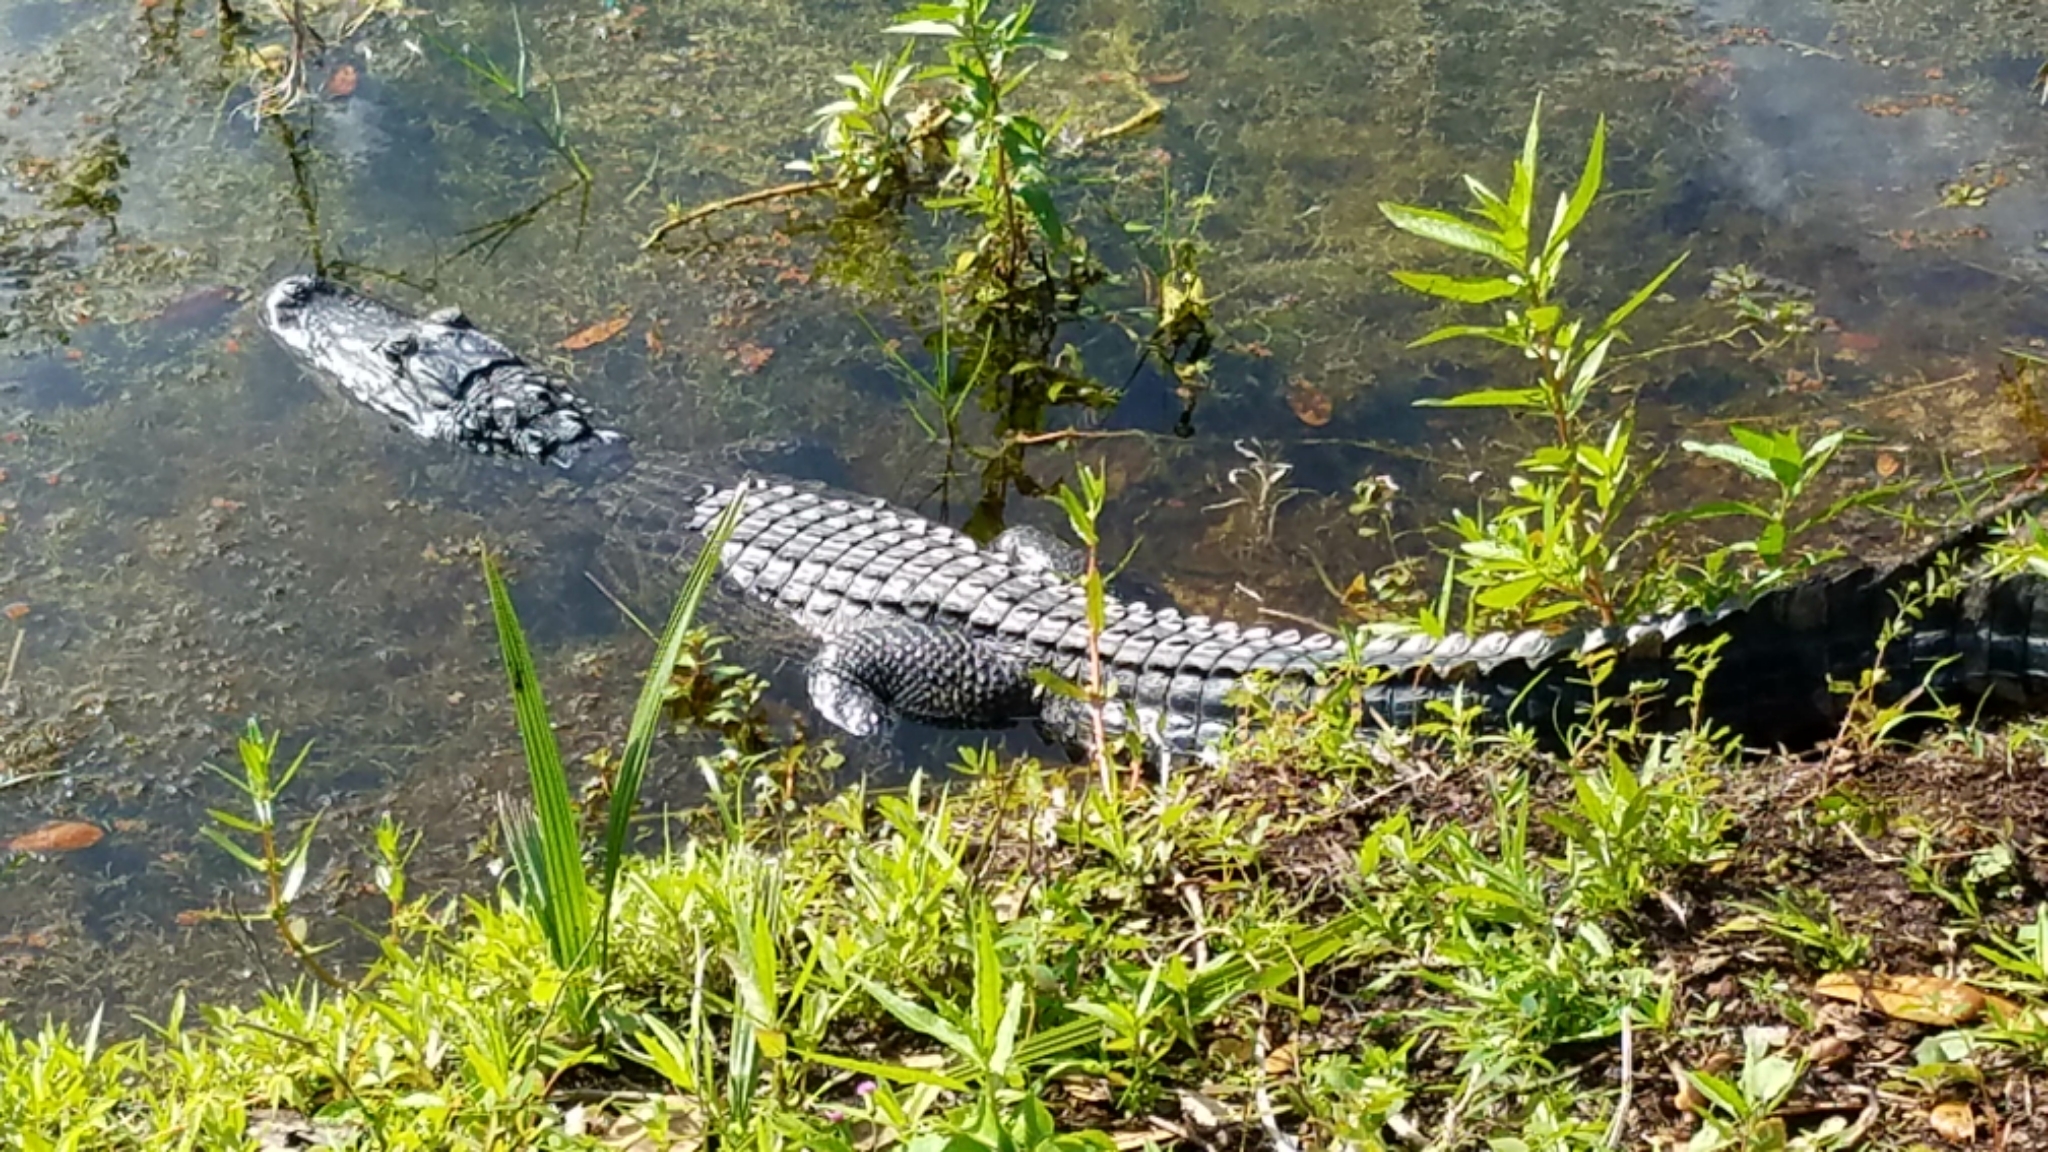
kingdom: Animalia
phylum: Chordata
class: Crocodylia
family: Alligatoridae
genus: Alligator
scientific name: Alligator mississippiensis
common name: American alligator
